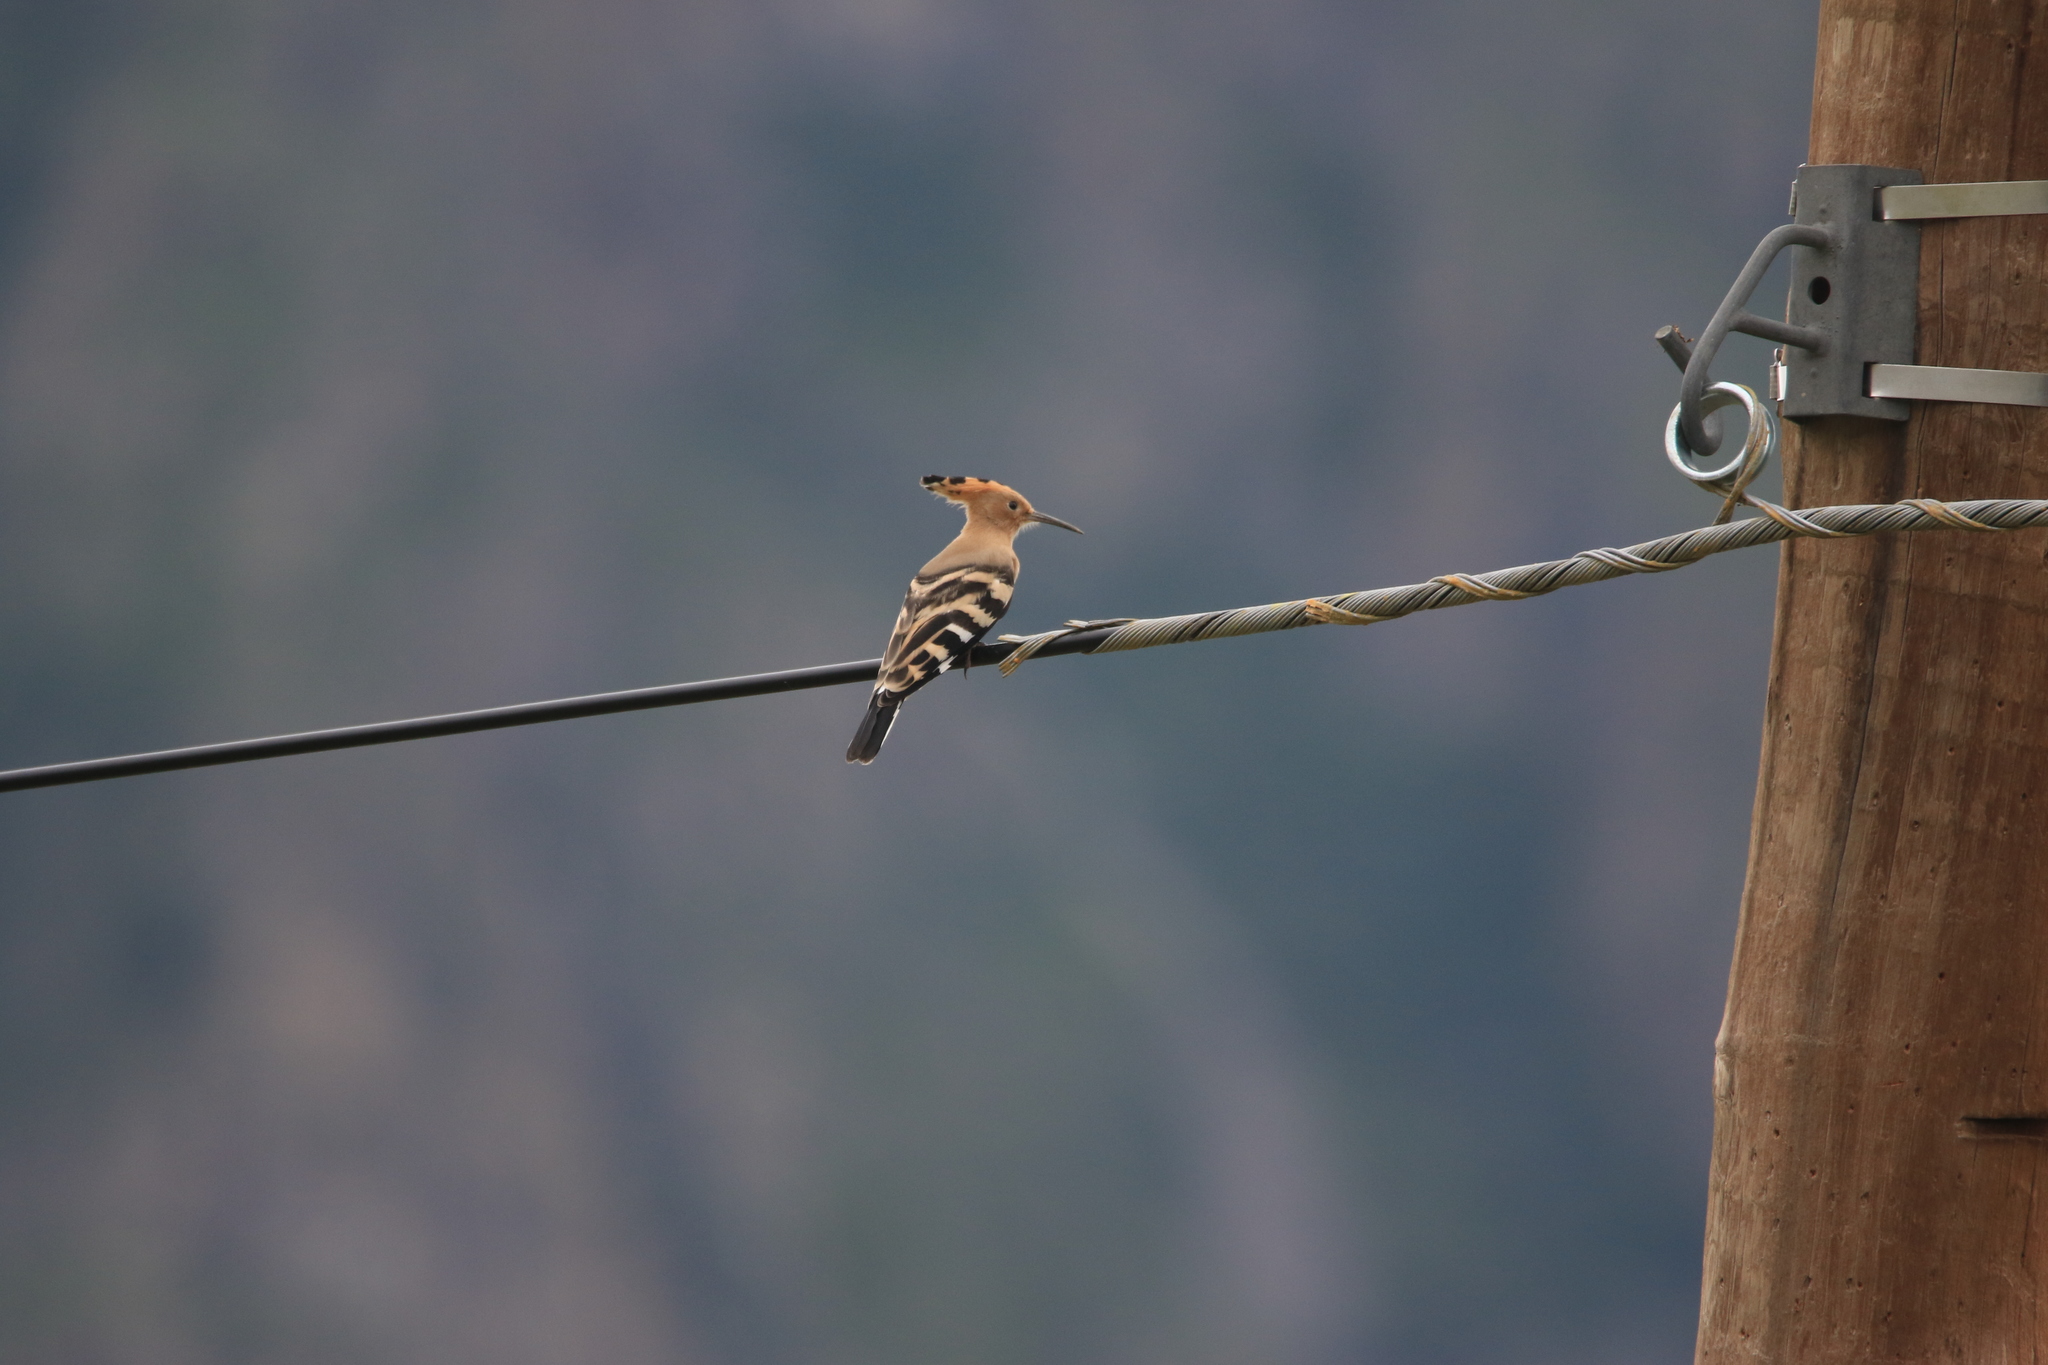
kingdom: Animalia
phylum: Chordata
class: Aves
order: Bucerotiformes
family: Upupidae
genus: Upupa
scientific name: Upupa epops
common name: Eurasian hoopoe
